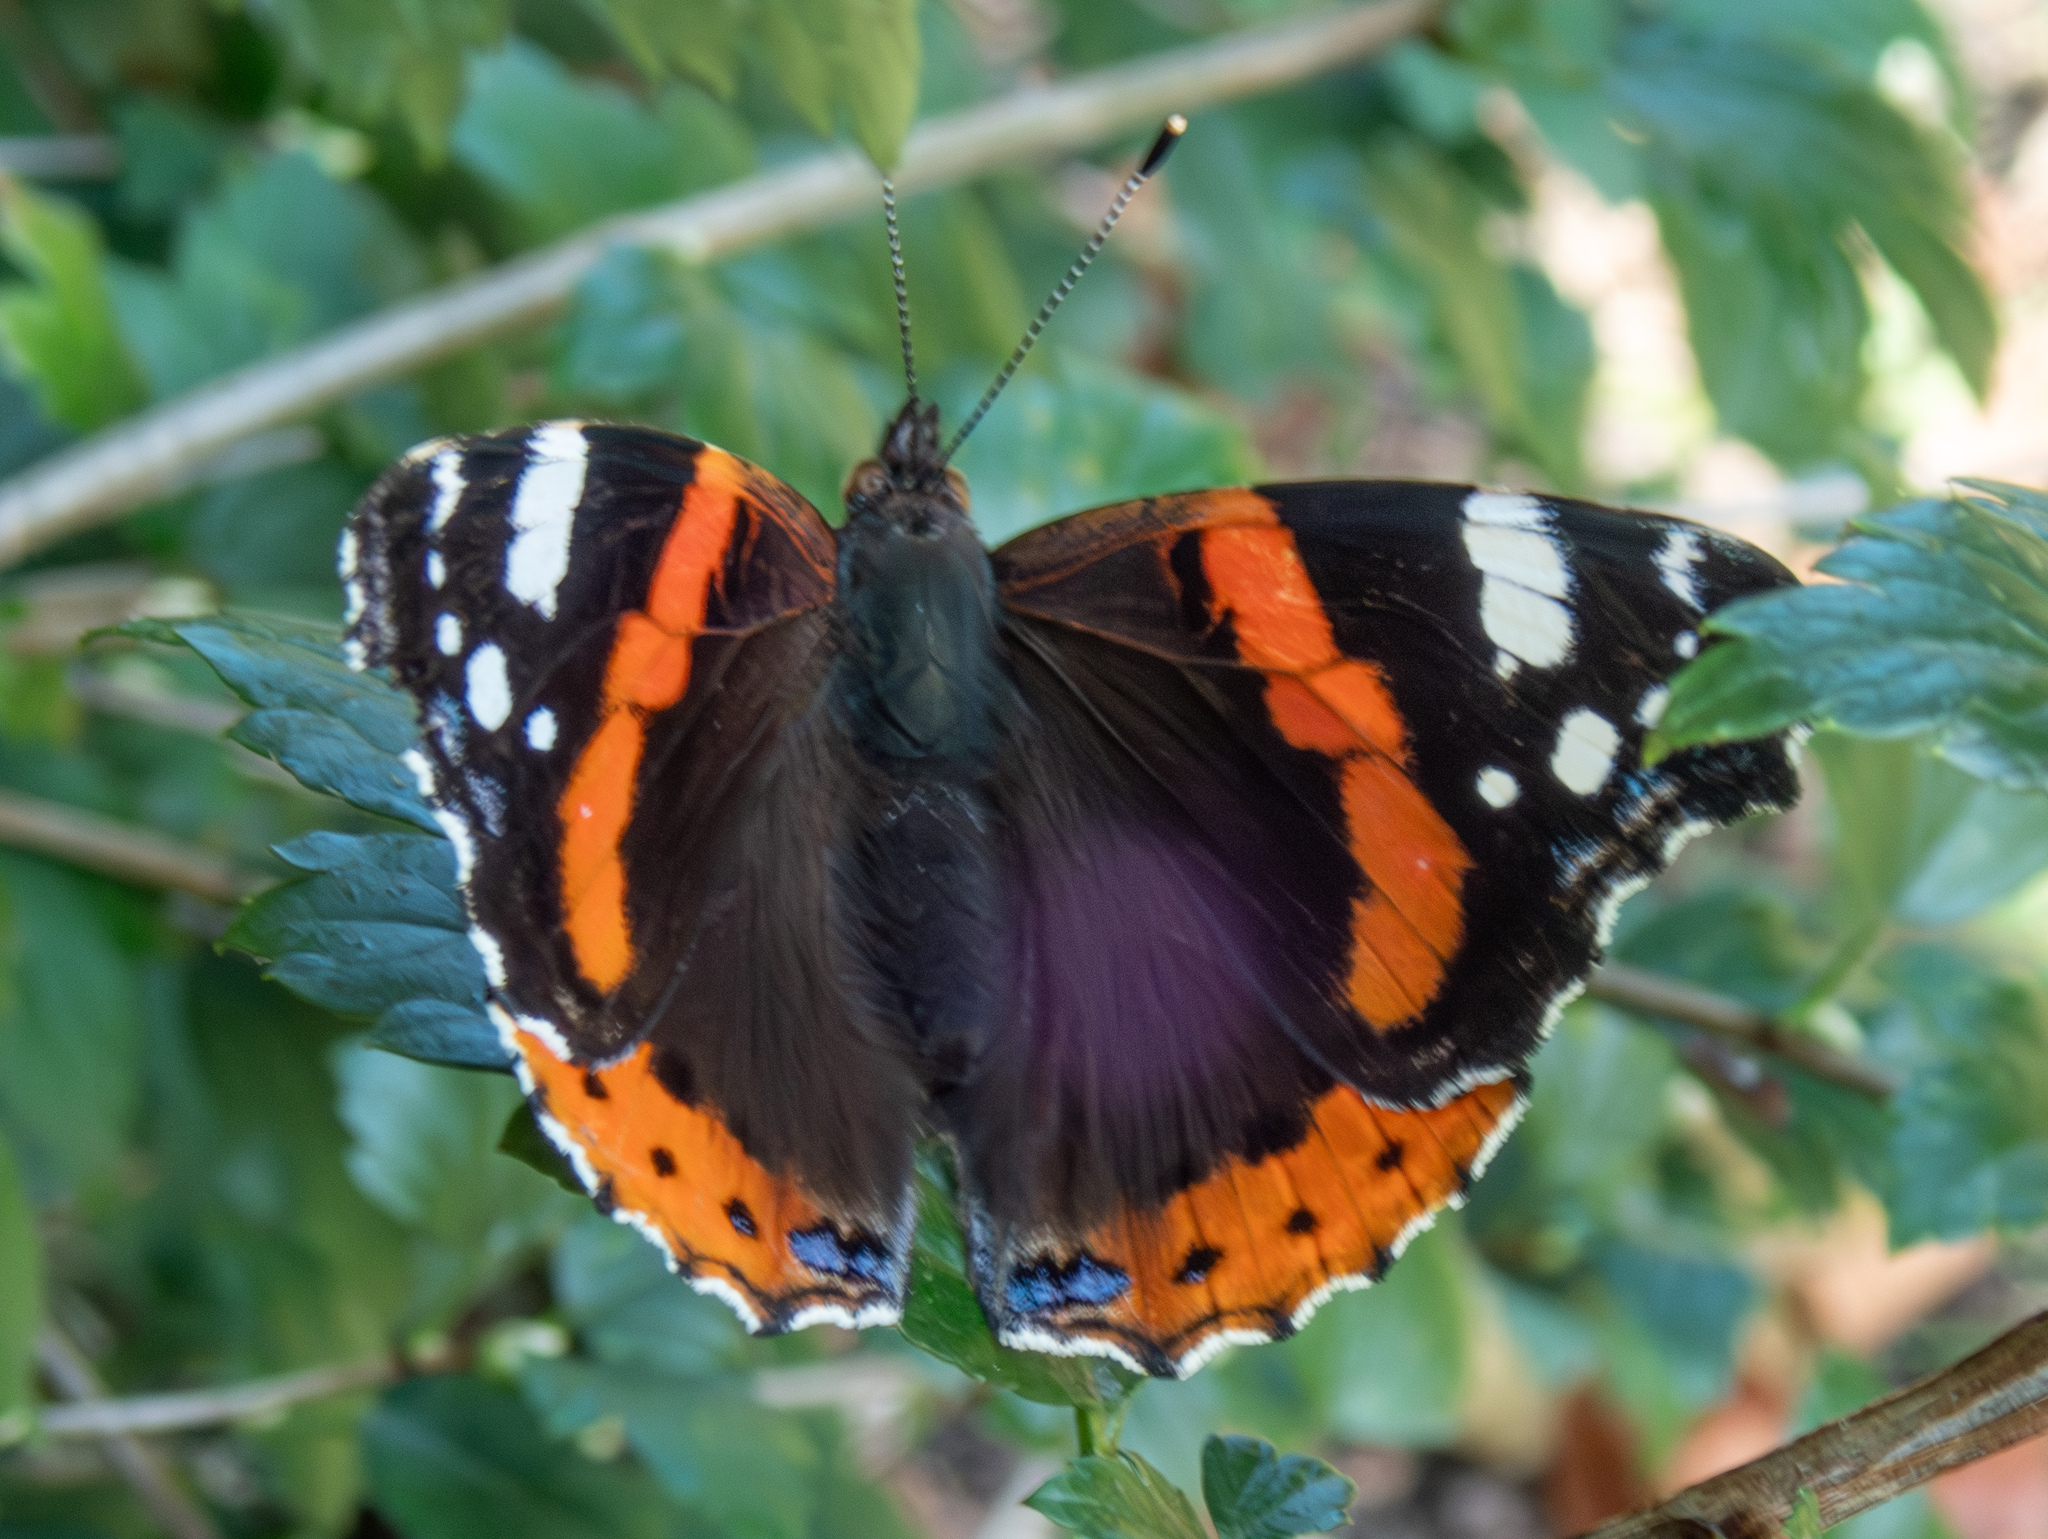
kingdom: Animalia
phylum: Arthropoda
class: Insecta
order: Lepidoptera
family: Nymphalidae
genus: Vanessa
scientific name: Vanessa atalanta
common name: Red admiral
